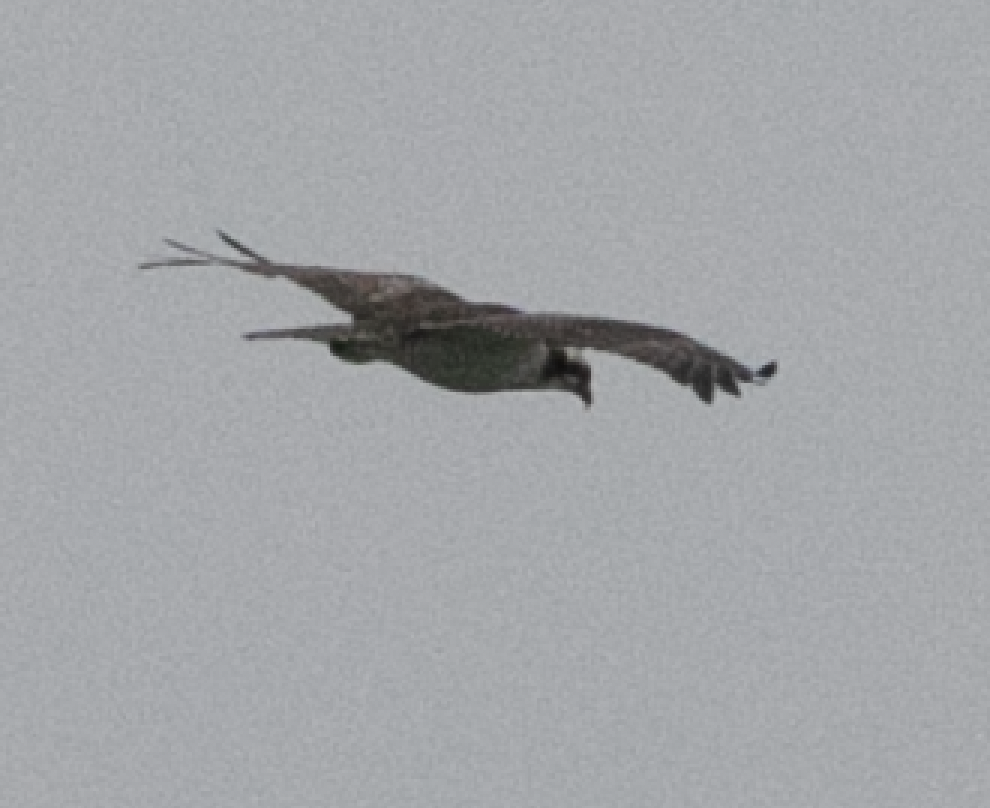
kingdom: Animalia
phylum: Chordata
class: Aves
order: Accipitriformes
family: Pandionidae
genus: Pandion
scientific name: Pandion haliaetus
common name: Osprey
